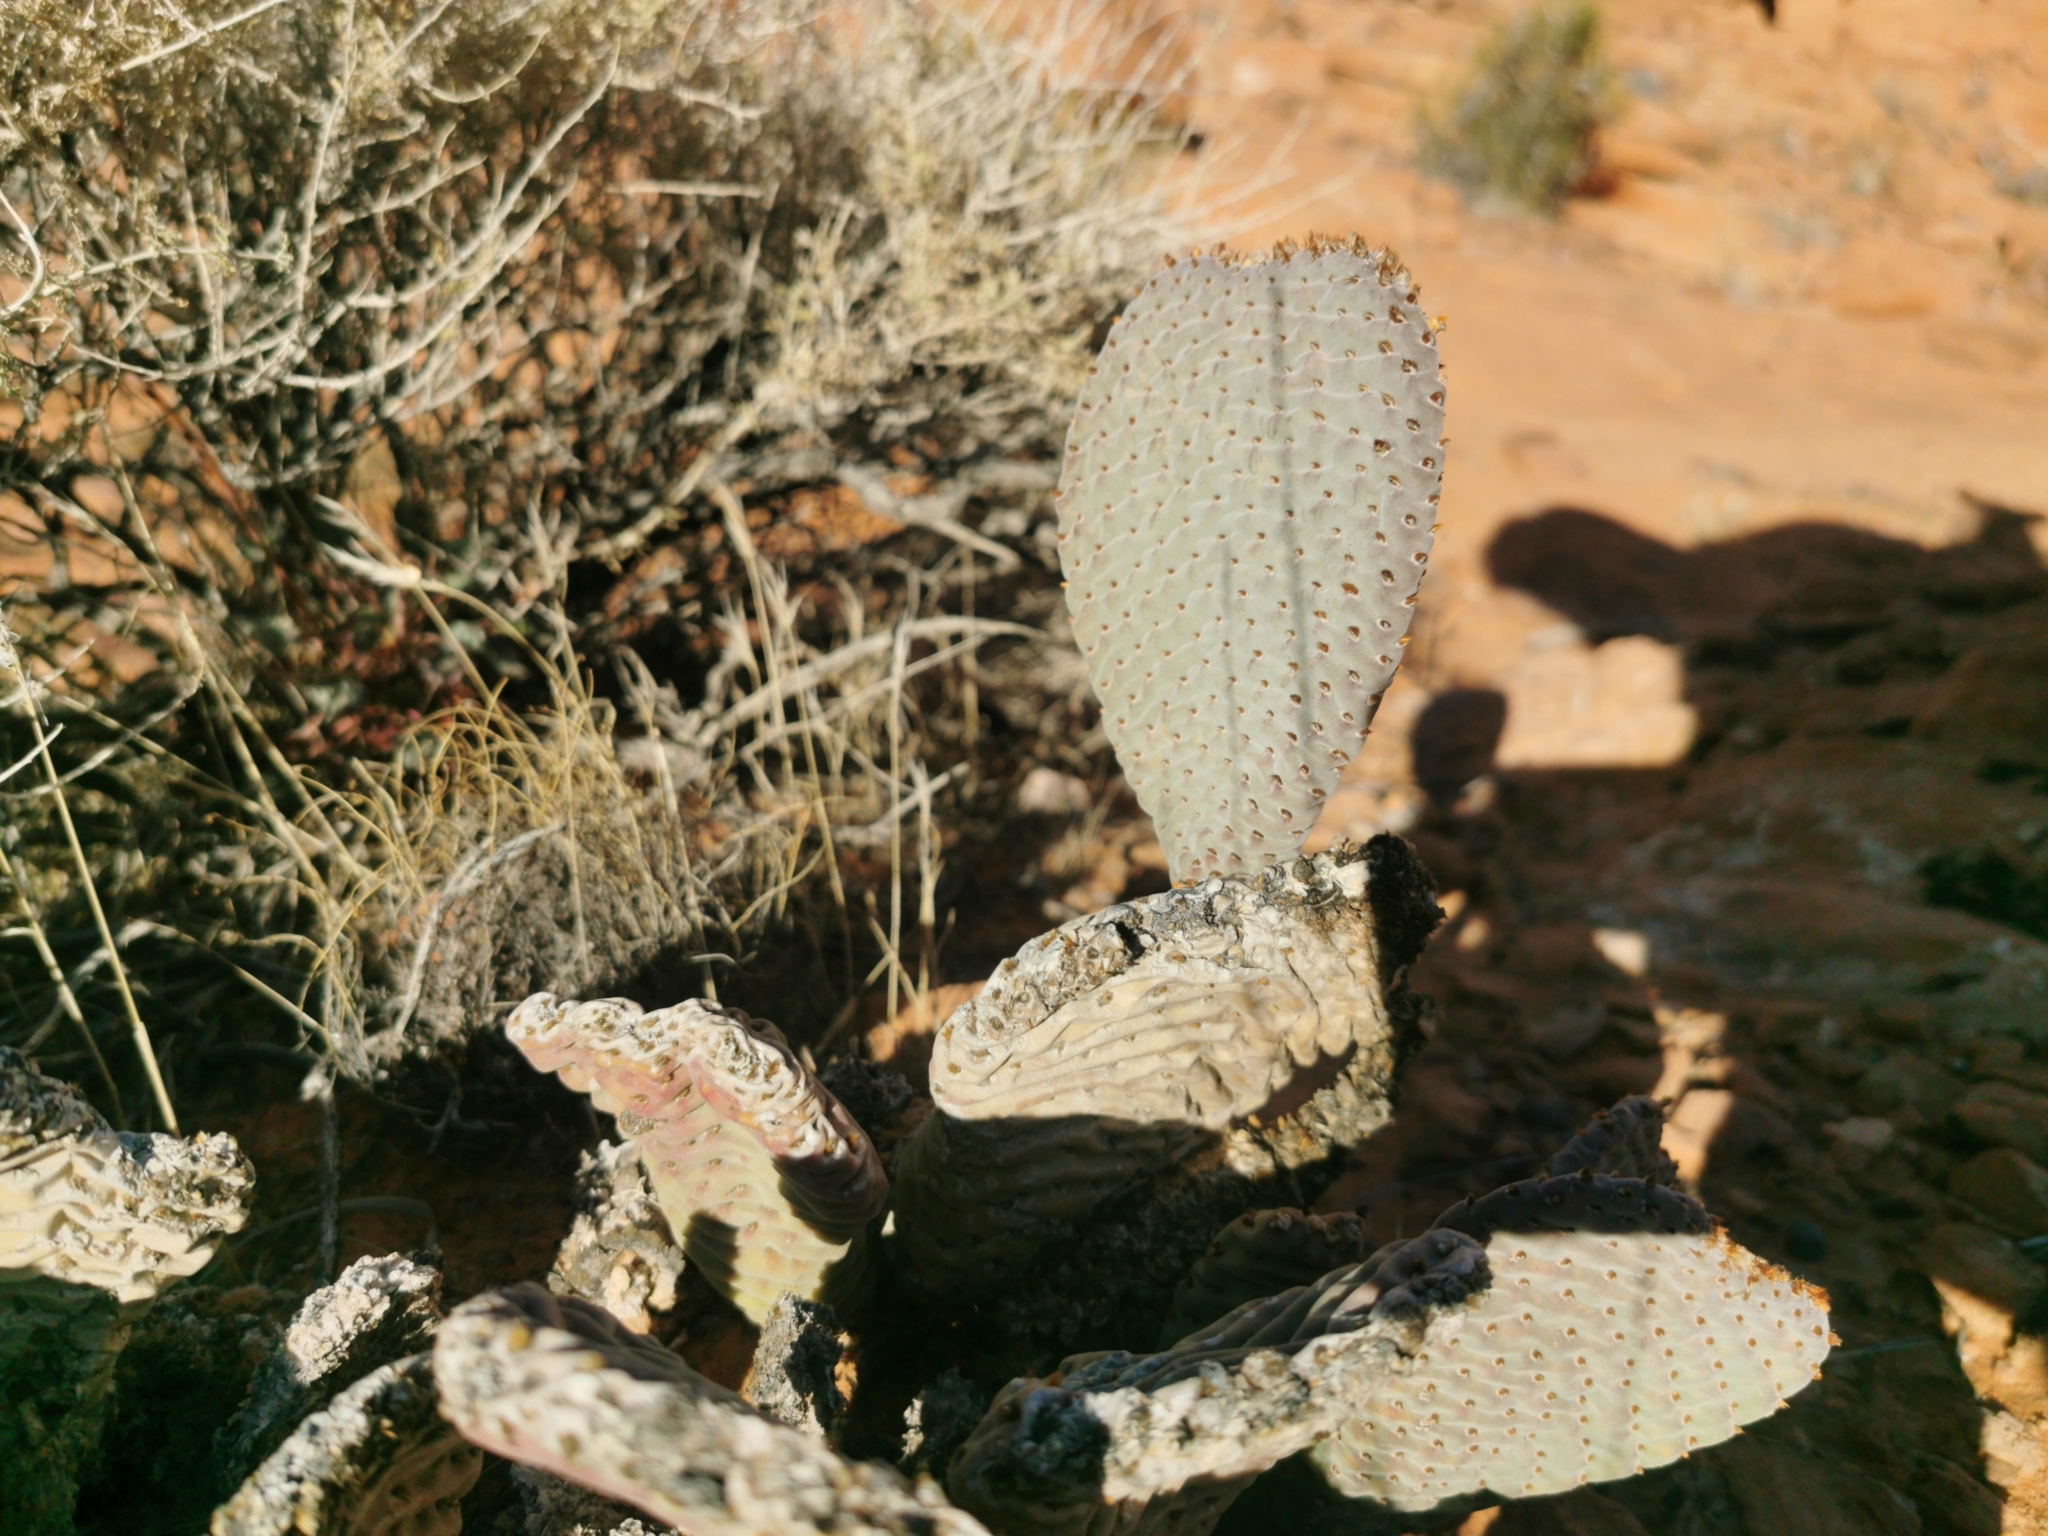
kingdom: Plantae
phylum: Tracheophyta
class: Magnoliopsida
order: Caryophyllales
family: Cactaceae
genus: Opuntia
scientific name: Opuntia basilaris
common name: Beavertail prickly-pear
